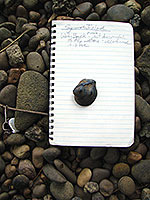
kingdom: Animalia
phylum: Mollusca
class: Bivalvia
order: Unionida
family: Unionidae
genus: Obliquaria
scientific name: Obliquaria reflexa
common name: Threehorn wartyback
